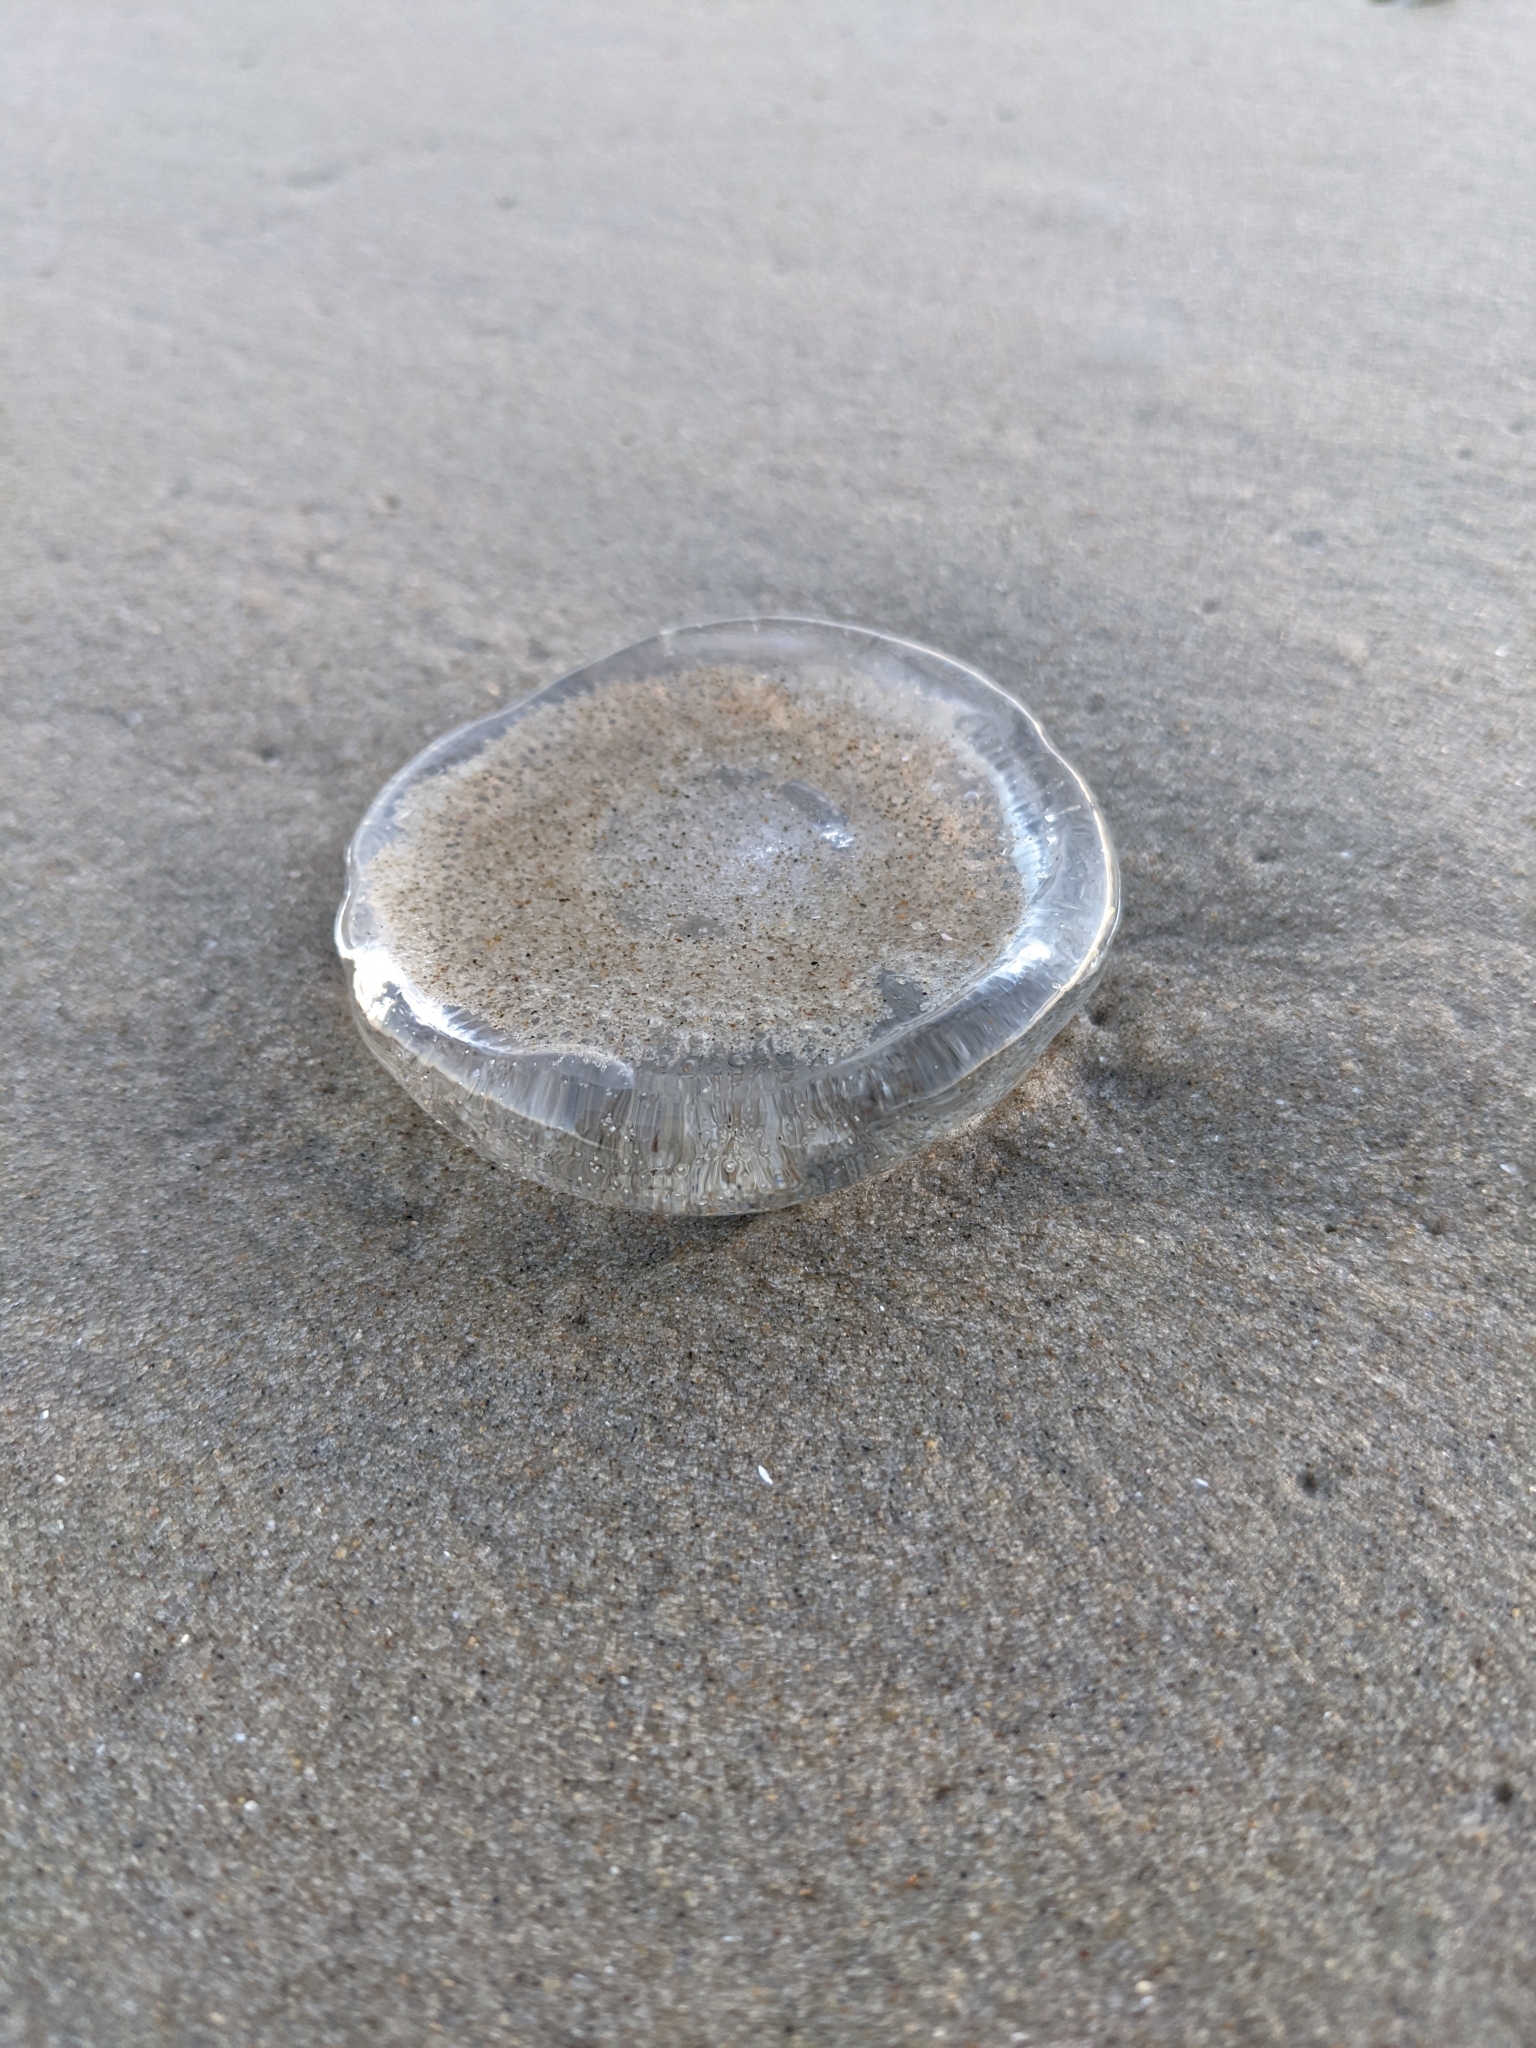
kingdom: Animalia
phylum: Cnidaria
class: Hydrozoa
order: Leptothecata
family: Aequoreidae
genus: Rhacostoma
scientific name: Rhacostoma atlanticum
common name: Lined water jelly
